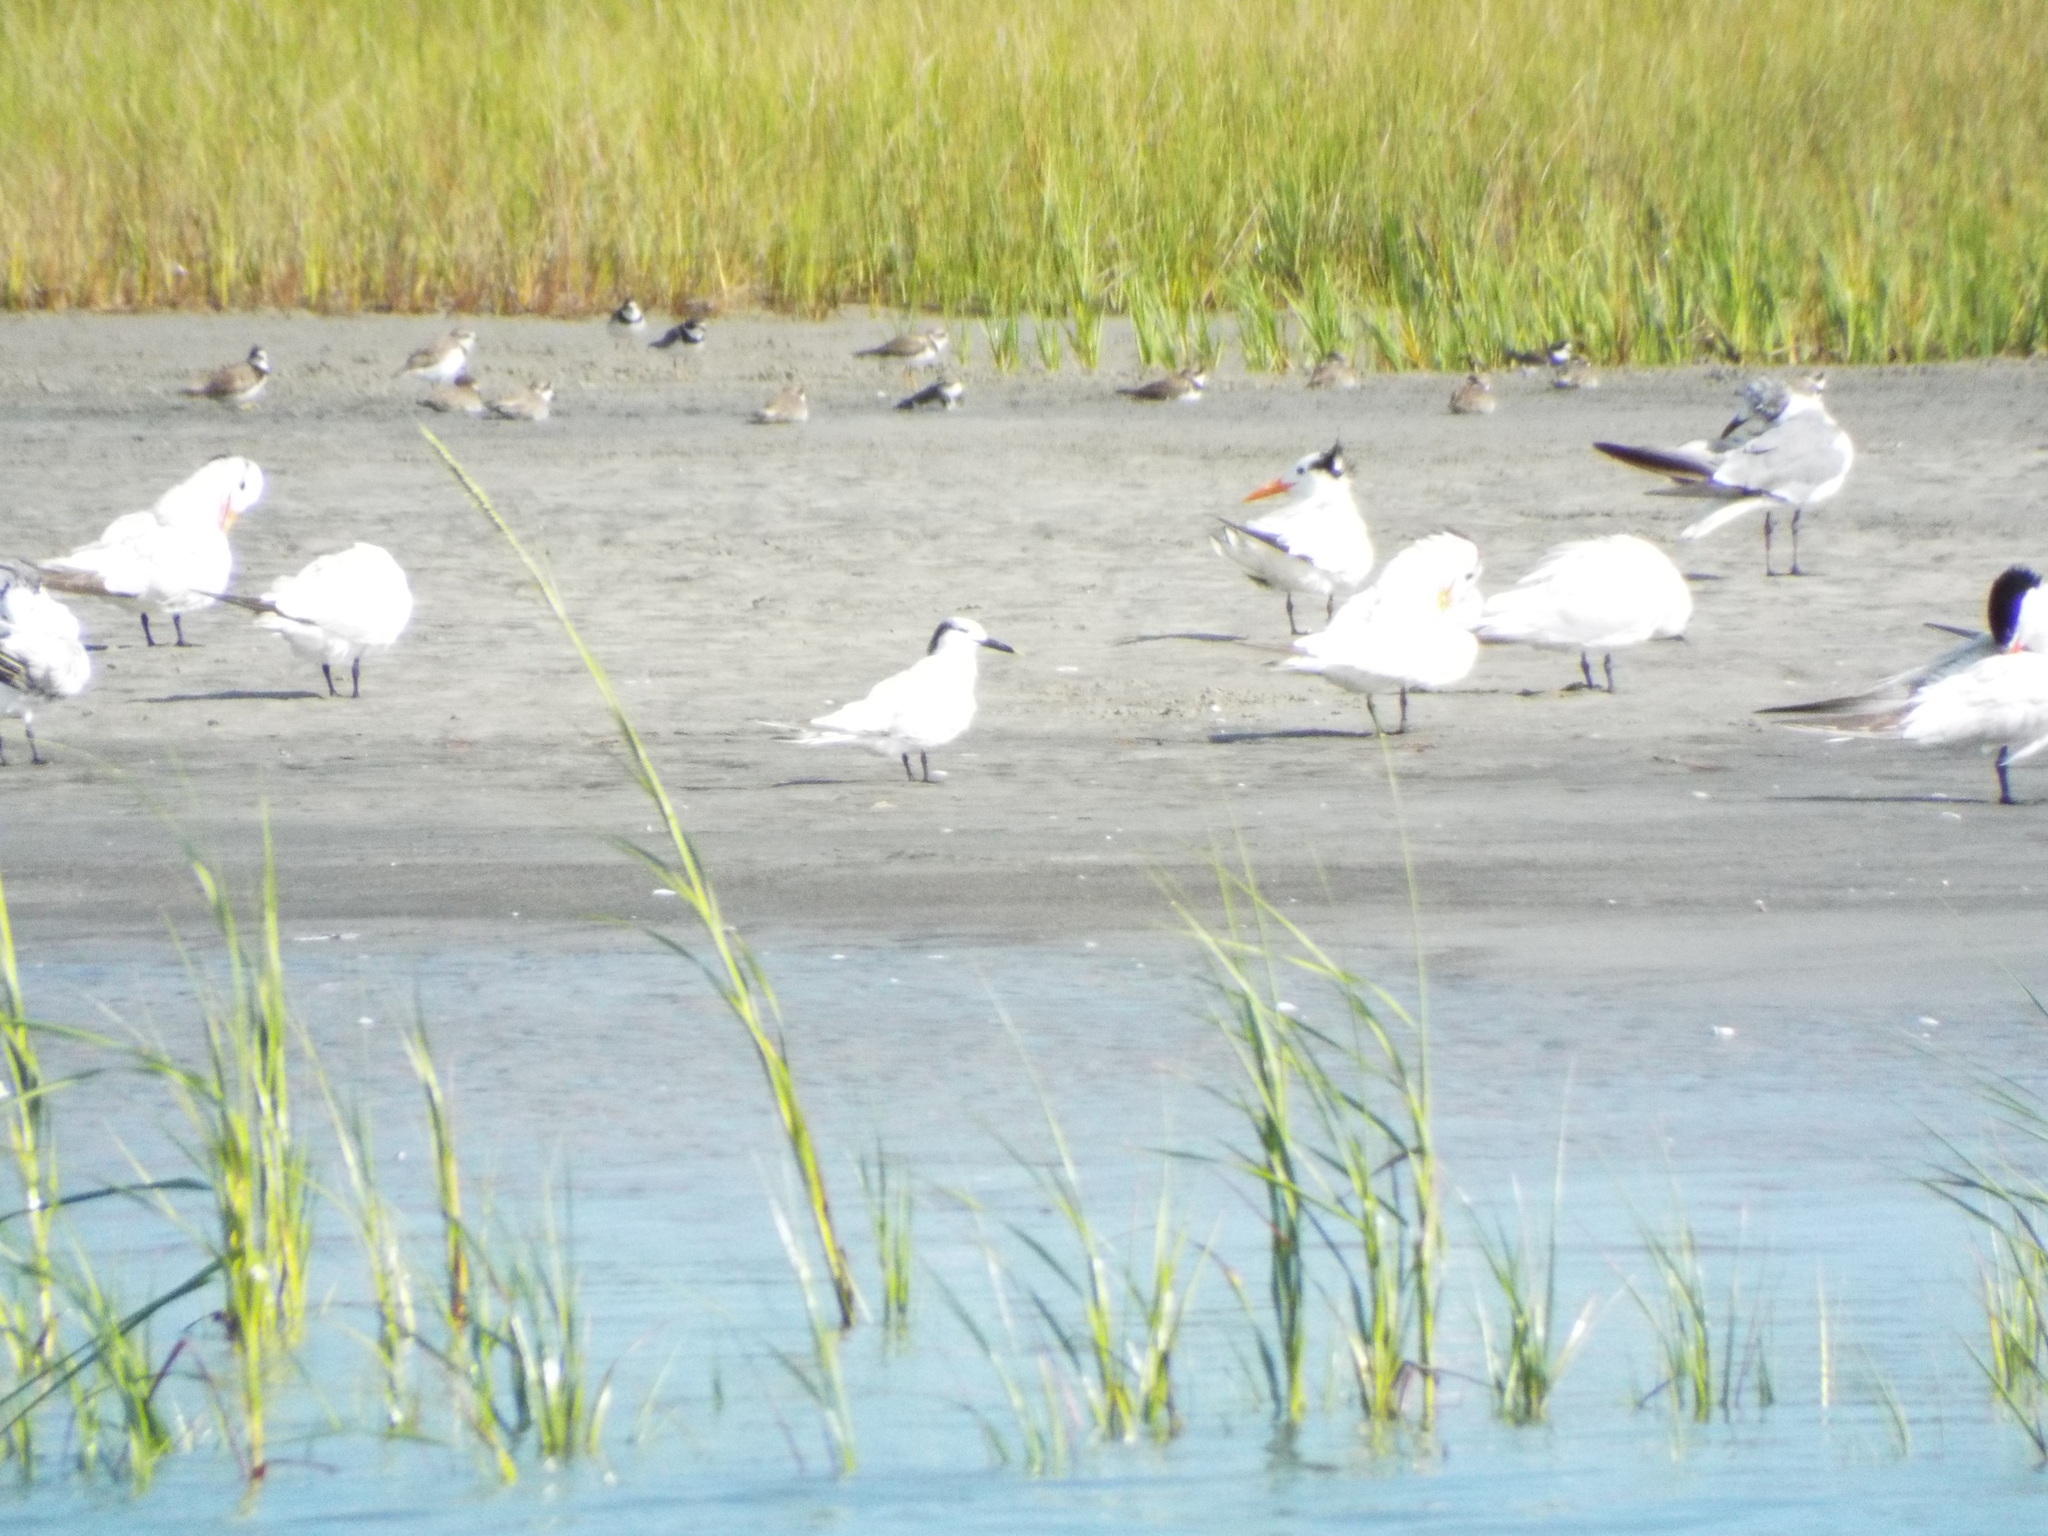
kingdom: Animalia
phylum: Chordata
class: Aves
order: Charadriiformes
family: Laridae
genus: Thalasseus
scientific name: Thalasseus sandvicensis
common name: Sandwich tern
